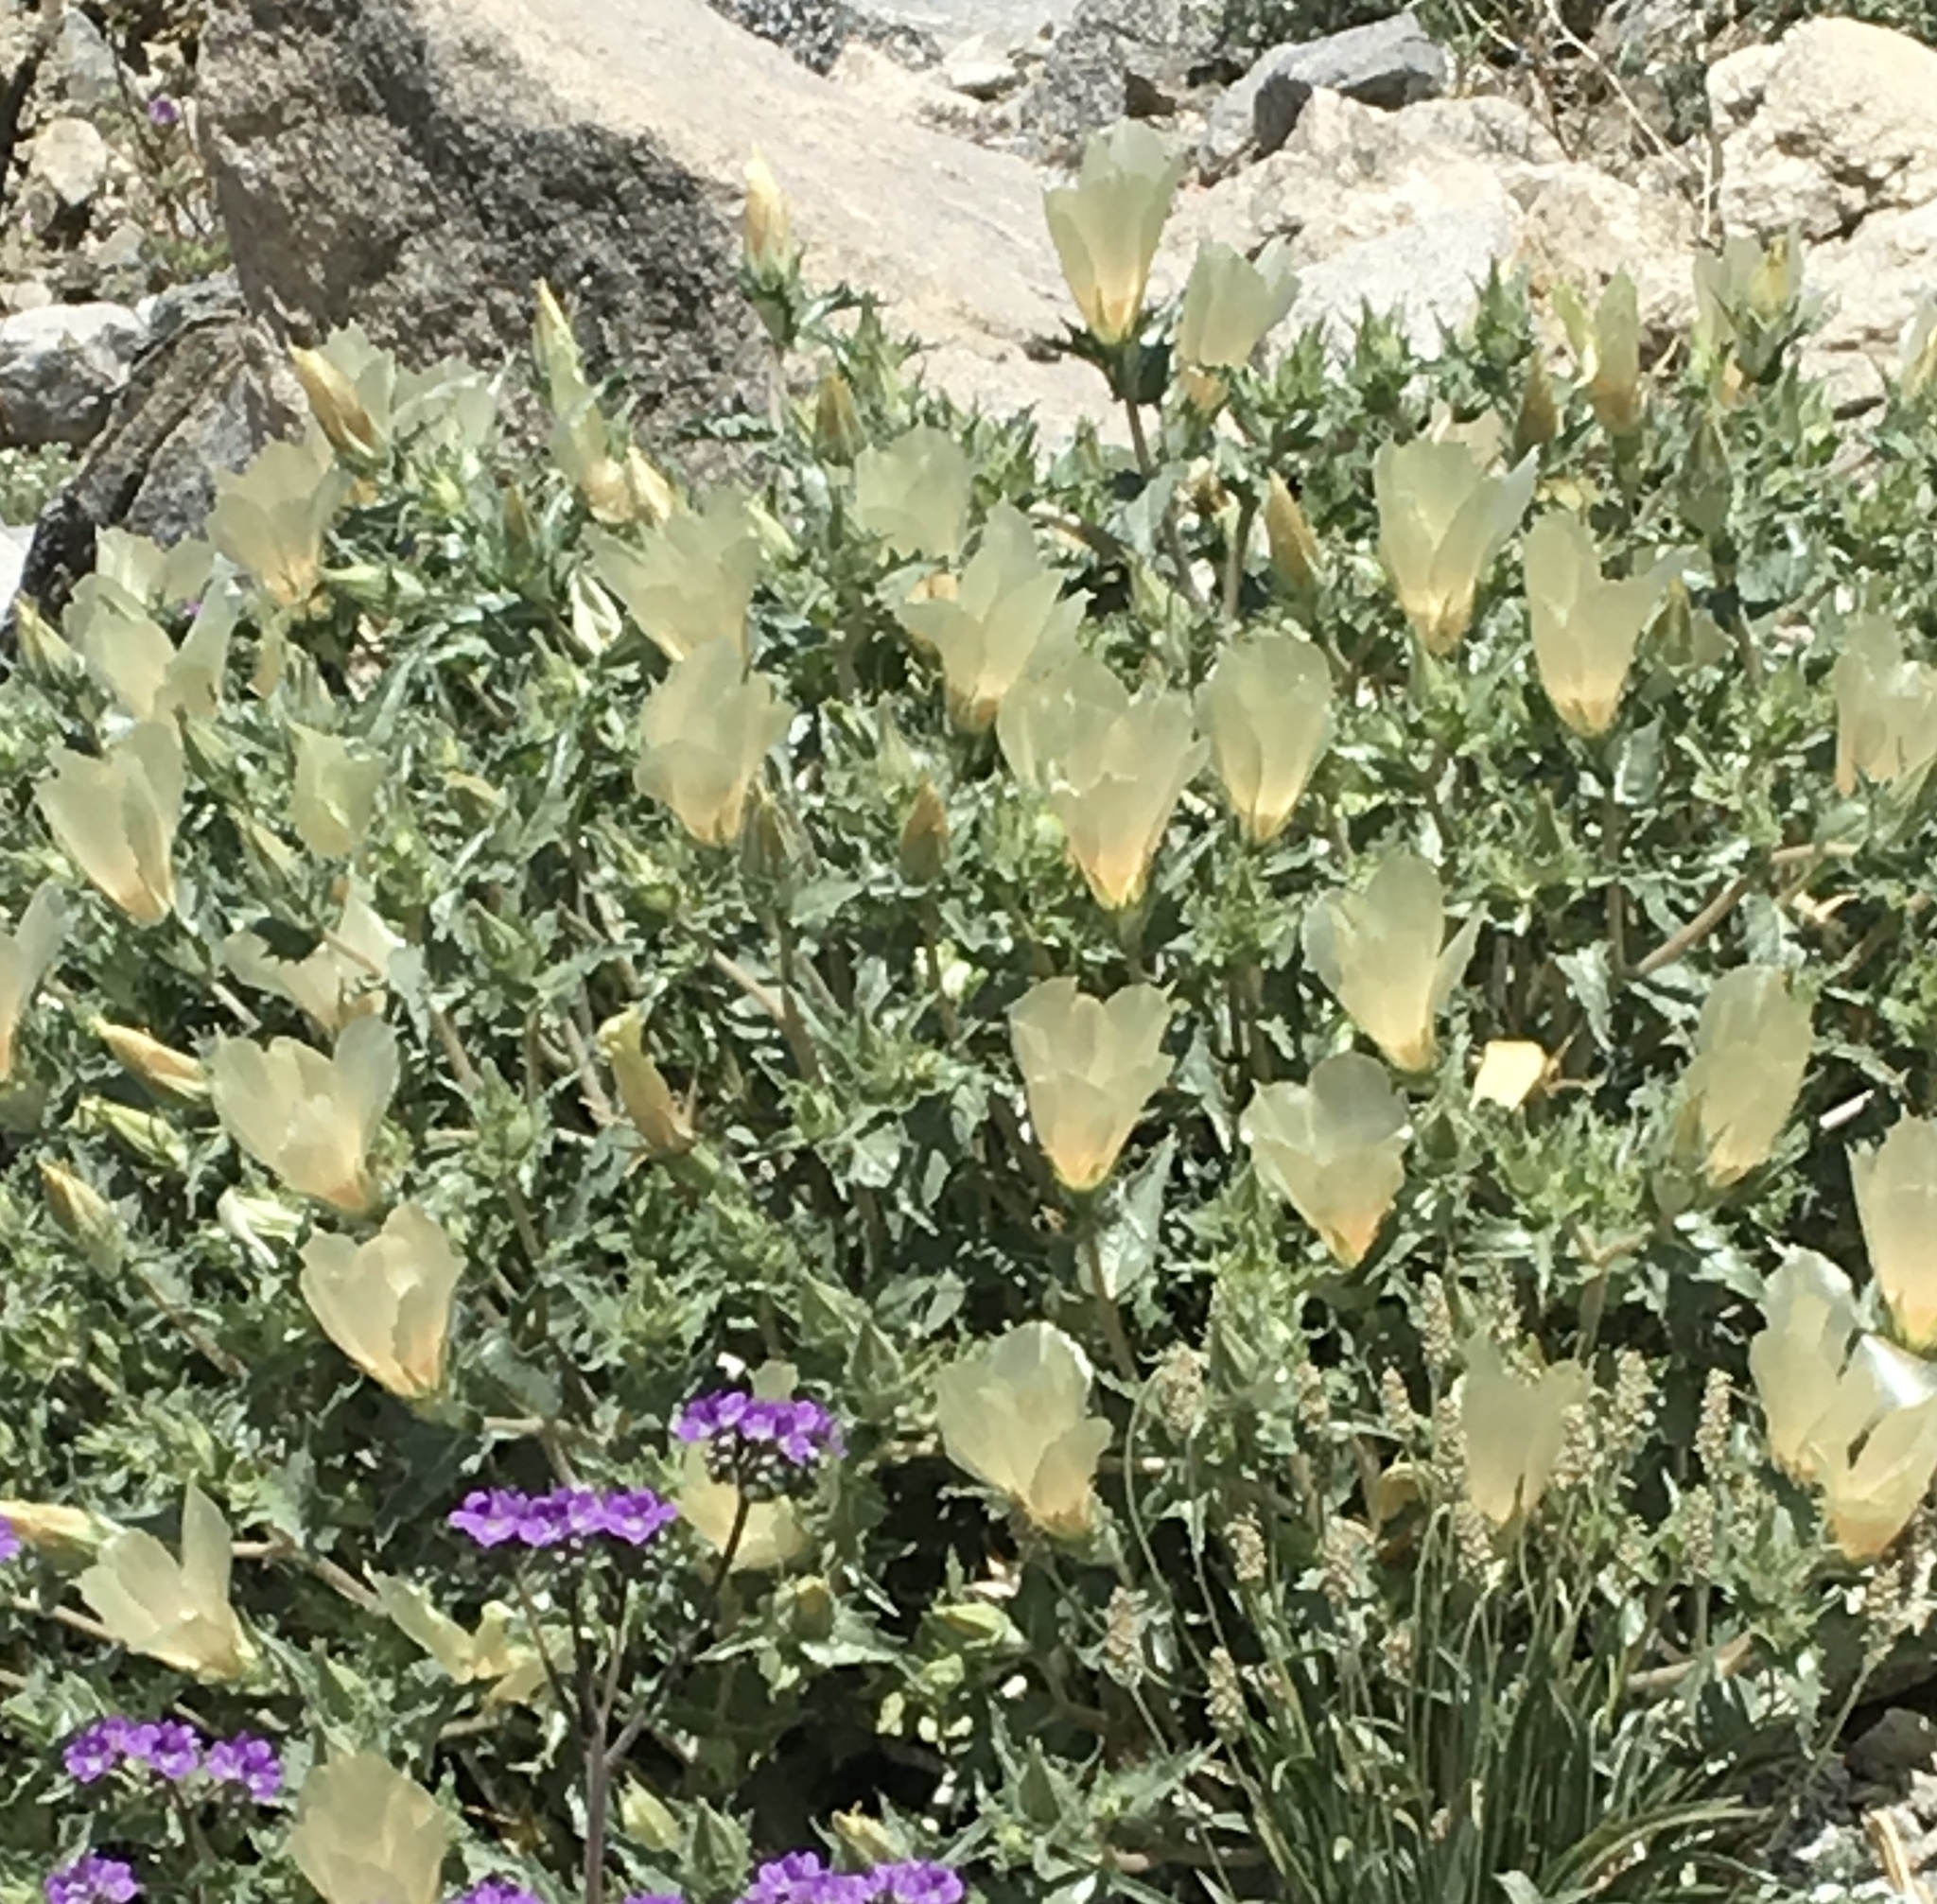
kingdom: Plantae
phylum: Tracheophyta
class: Magnoliopsida
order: Cornales
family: Loasaceae
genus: Mentzelia
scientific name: Mentzelia involucrata
